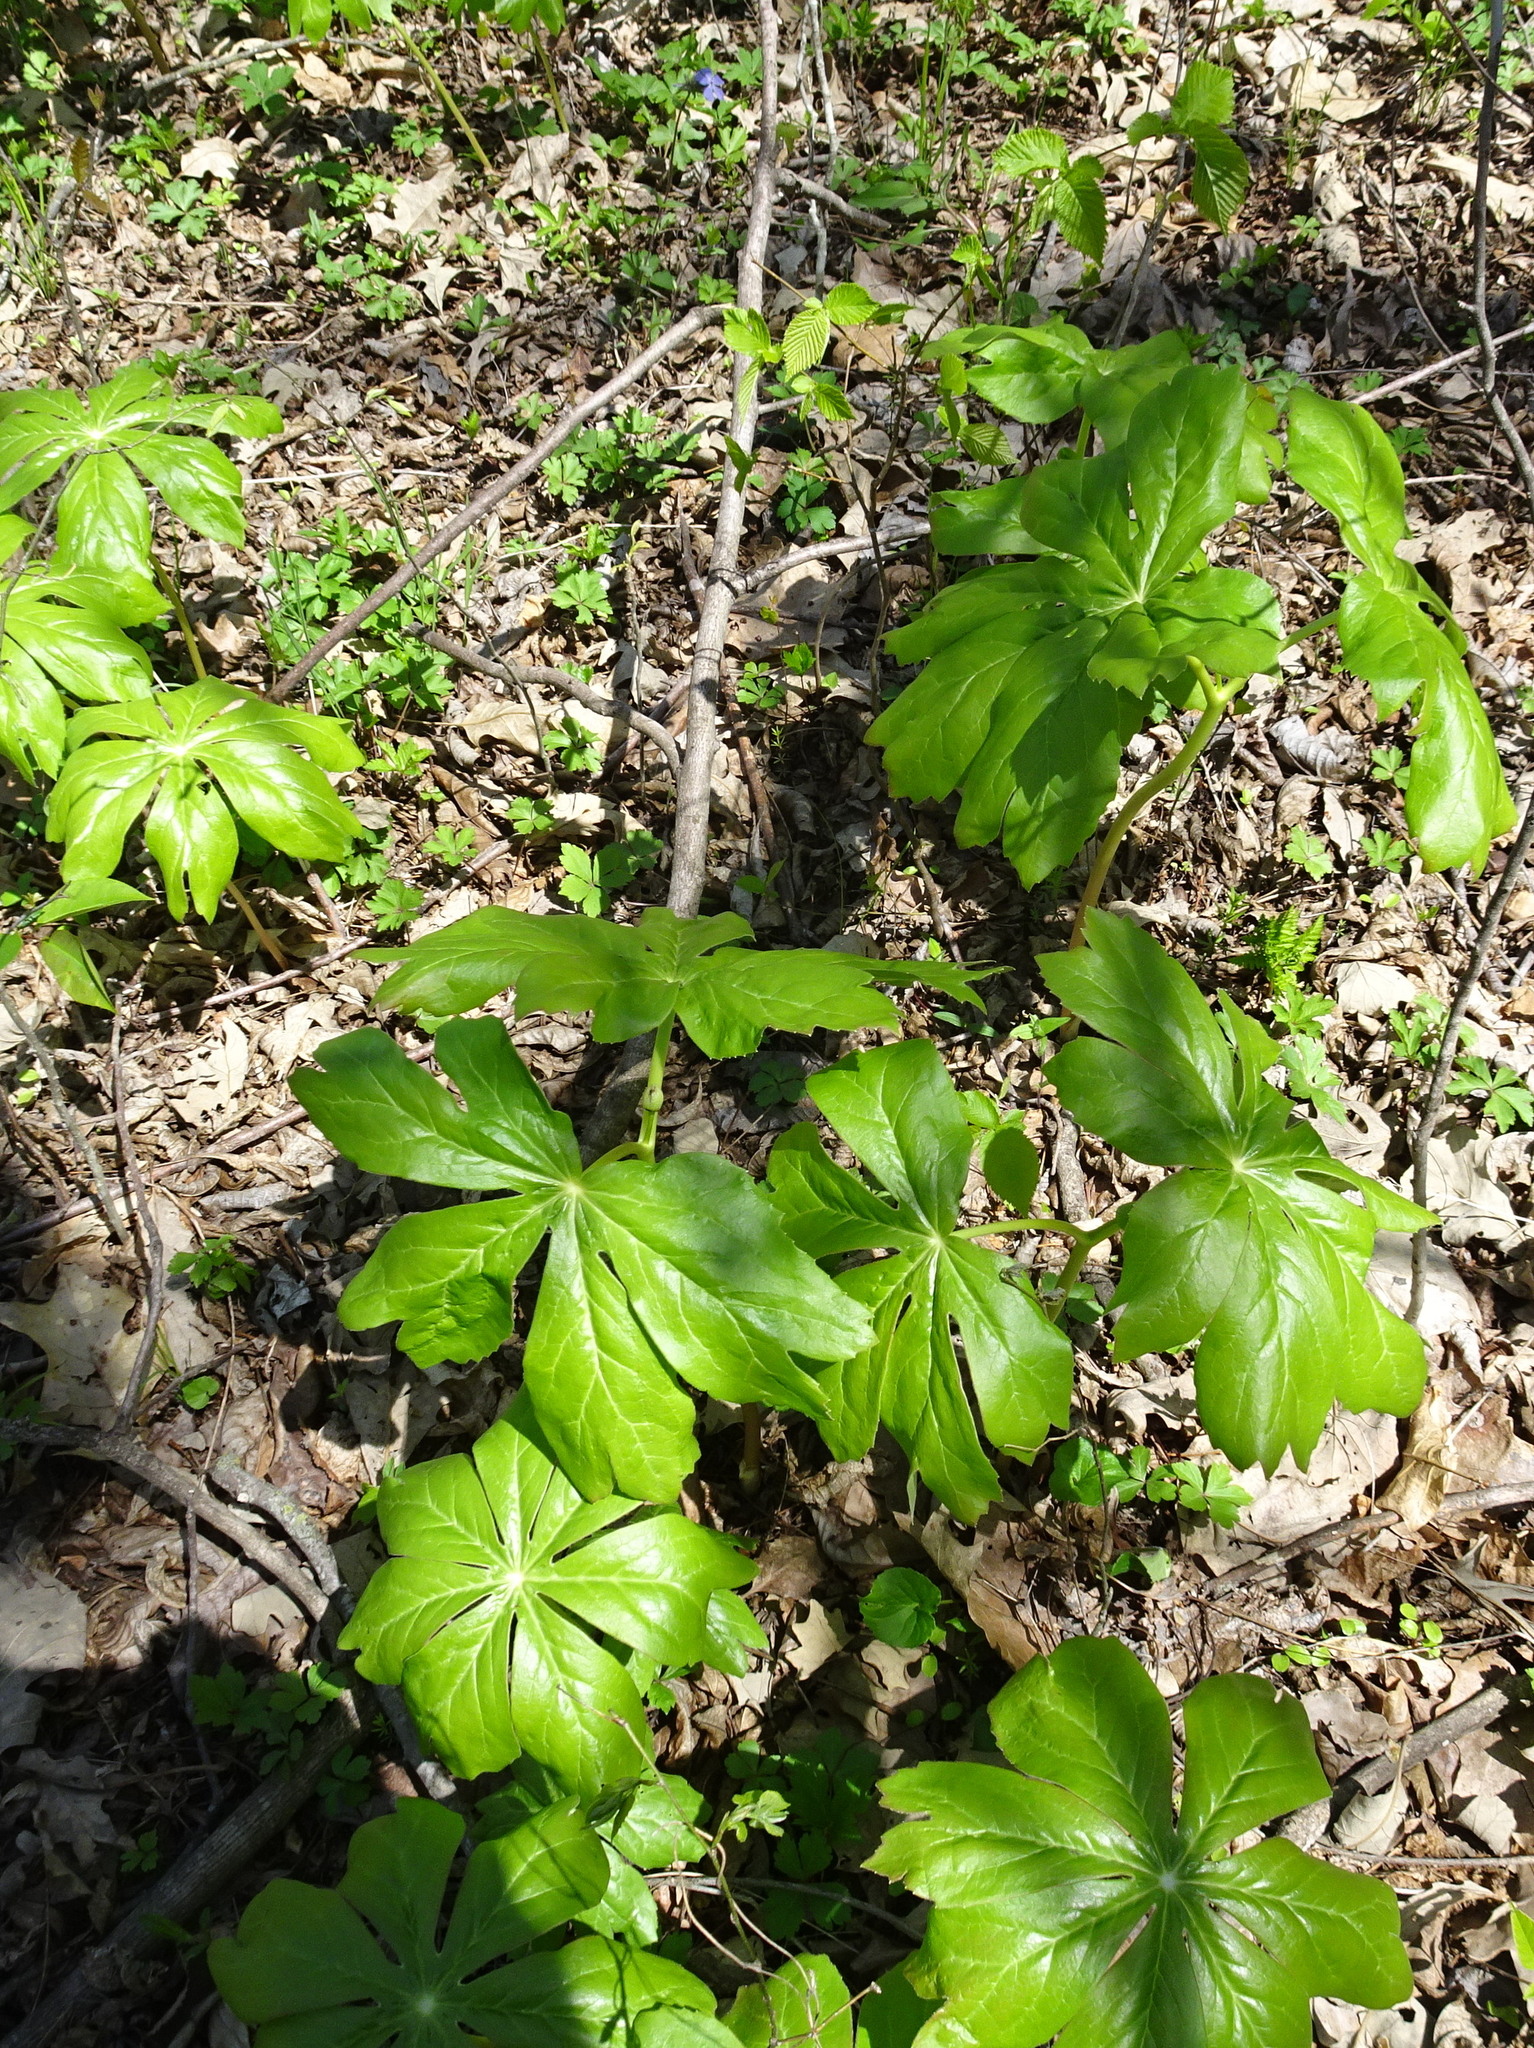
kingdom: Plantae
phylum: Tracheophyta
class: Magnoliopsida
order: Ranunculales
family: Berberidaceae
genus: Podophyllum
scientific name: Podophyllum peltatum
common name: Wild mandrake
